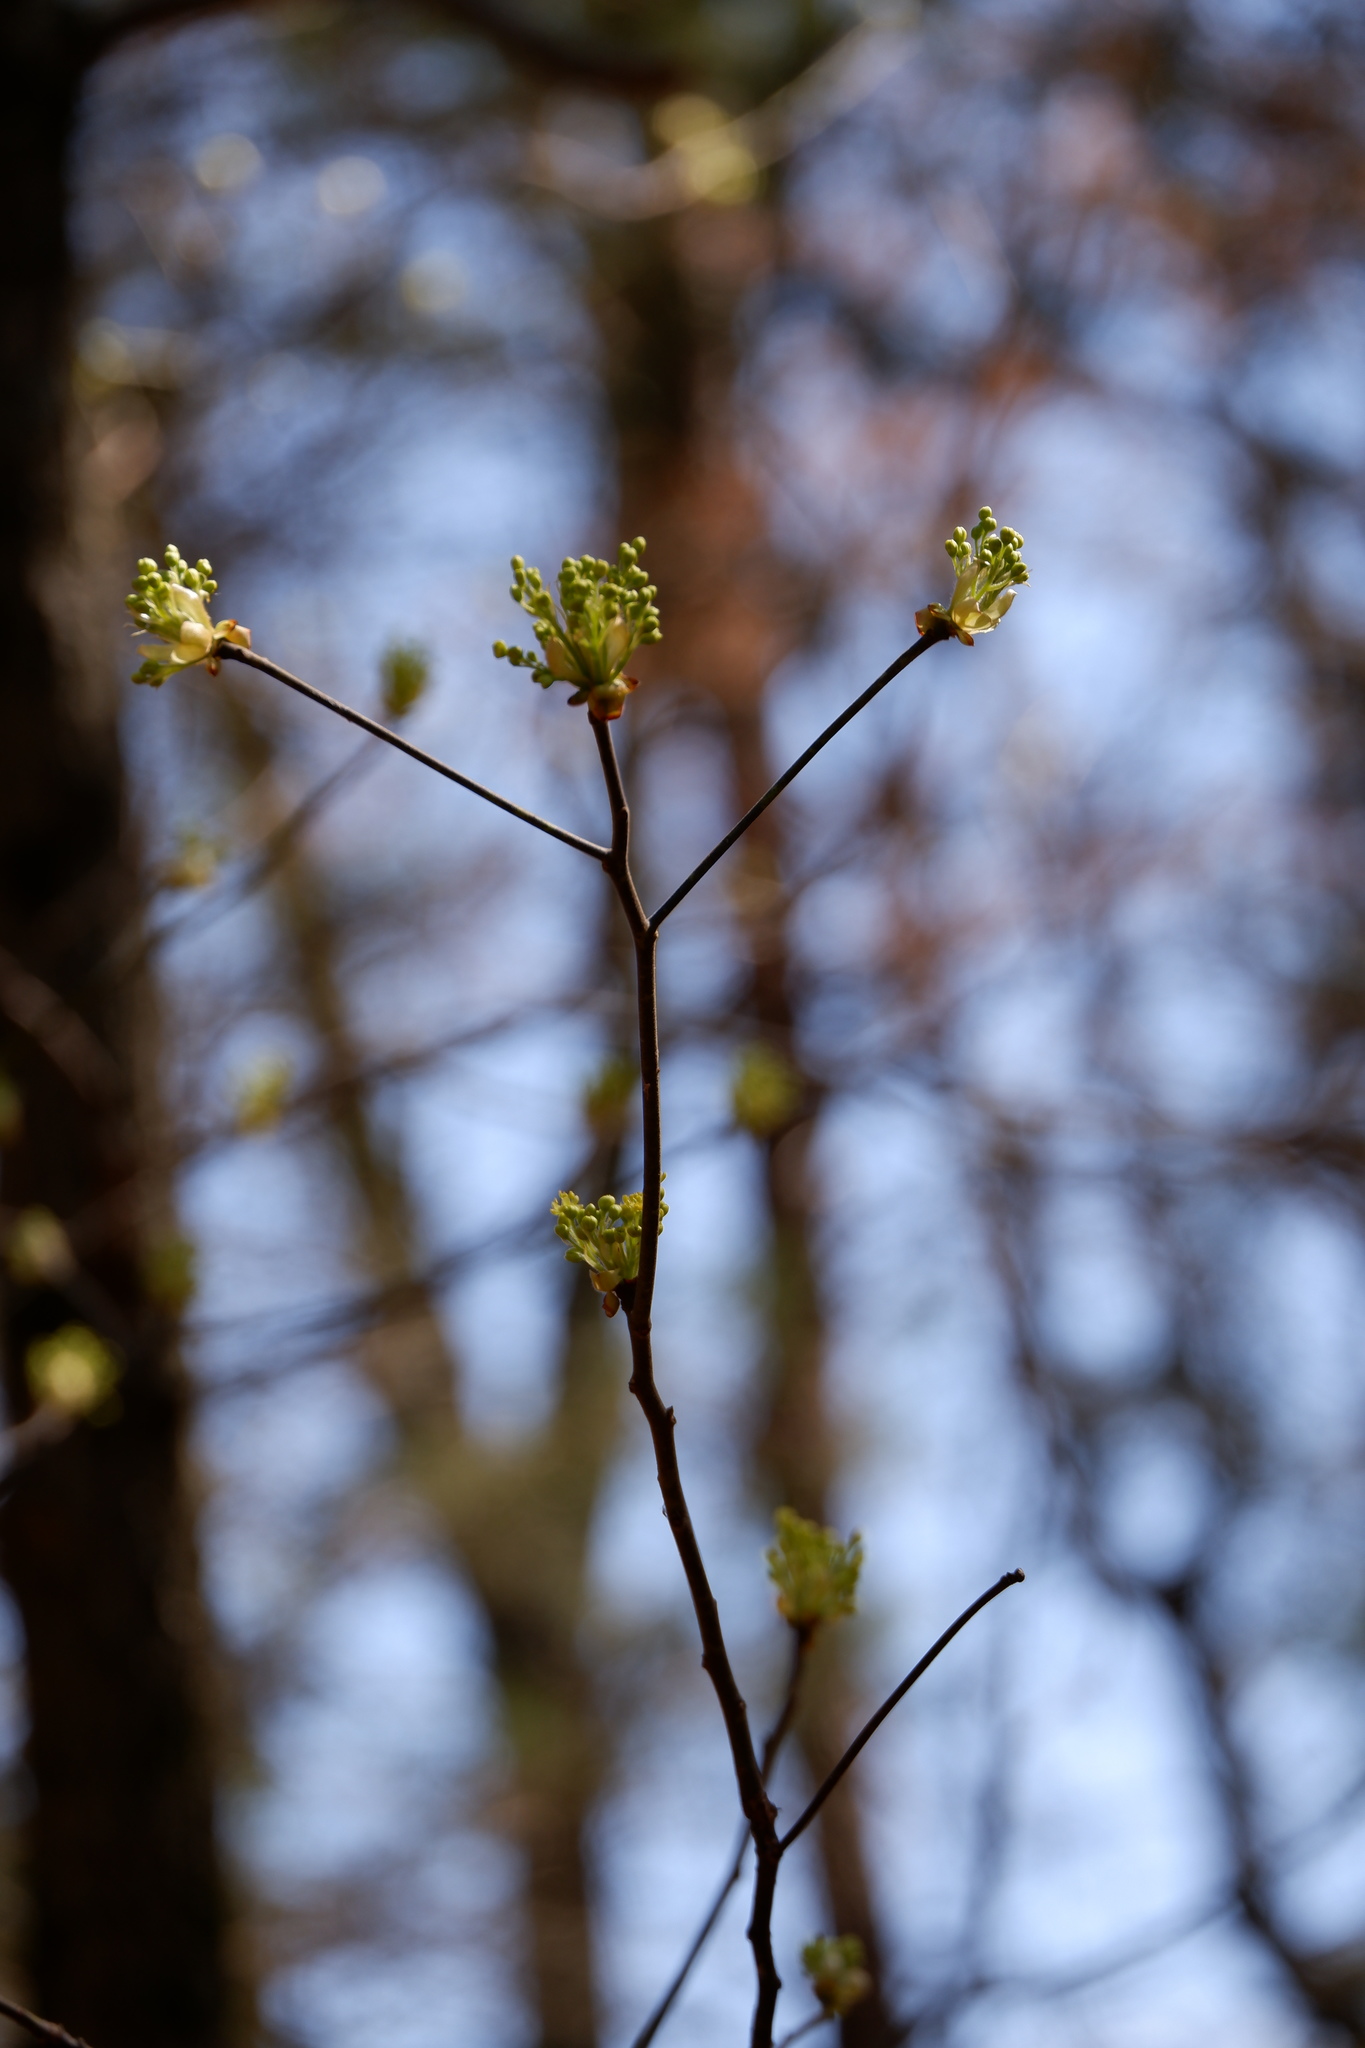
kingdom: Plantae
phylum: Tracheophyta
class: Magnoliopsida
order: Laurales
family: Lauraceae
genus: Sassafras
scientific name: Sassafras albidum
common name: Sassafras
